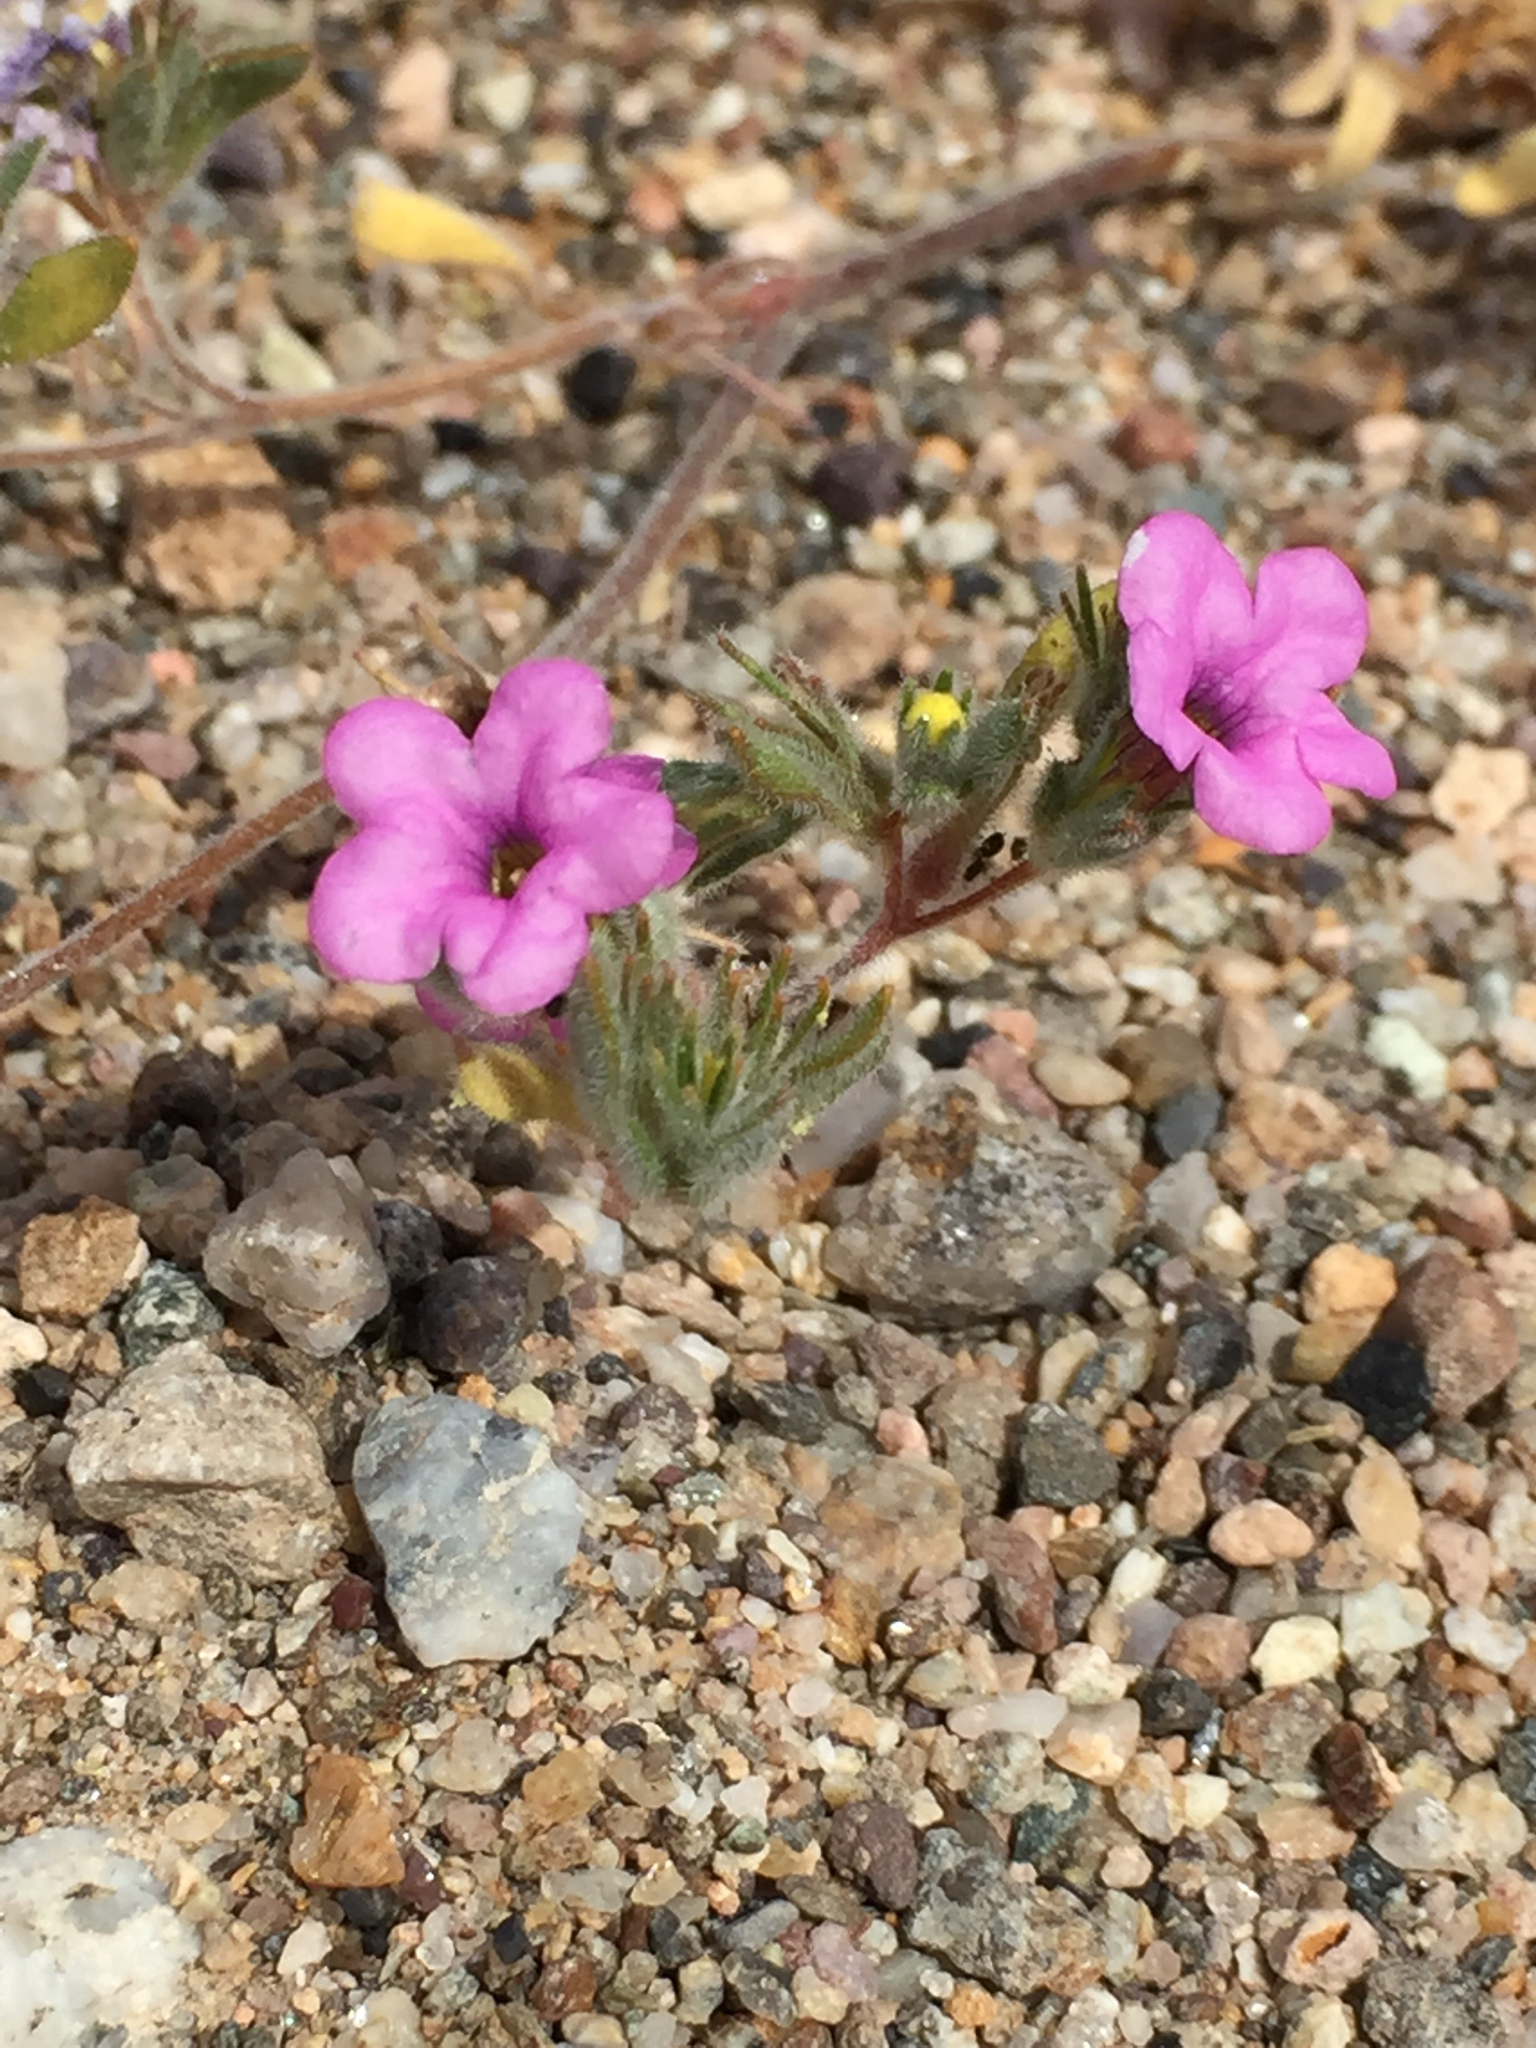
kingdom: Plantae
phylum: Tracheophyta
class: Magnoliopsida
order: Boraginales
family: Namaceae
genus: Nama
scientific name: Nama demissa
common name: Leafy nama
